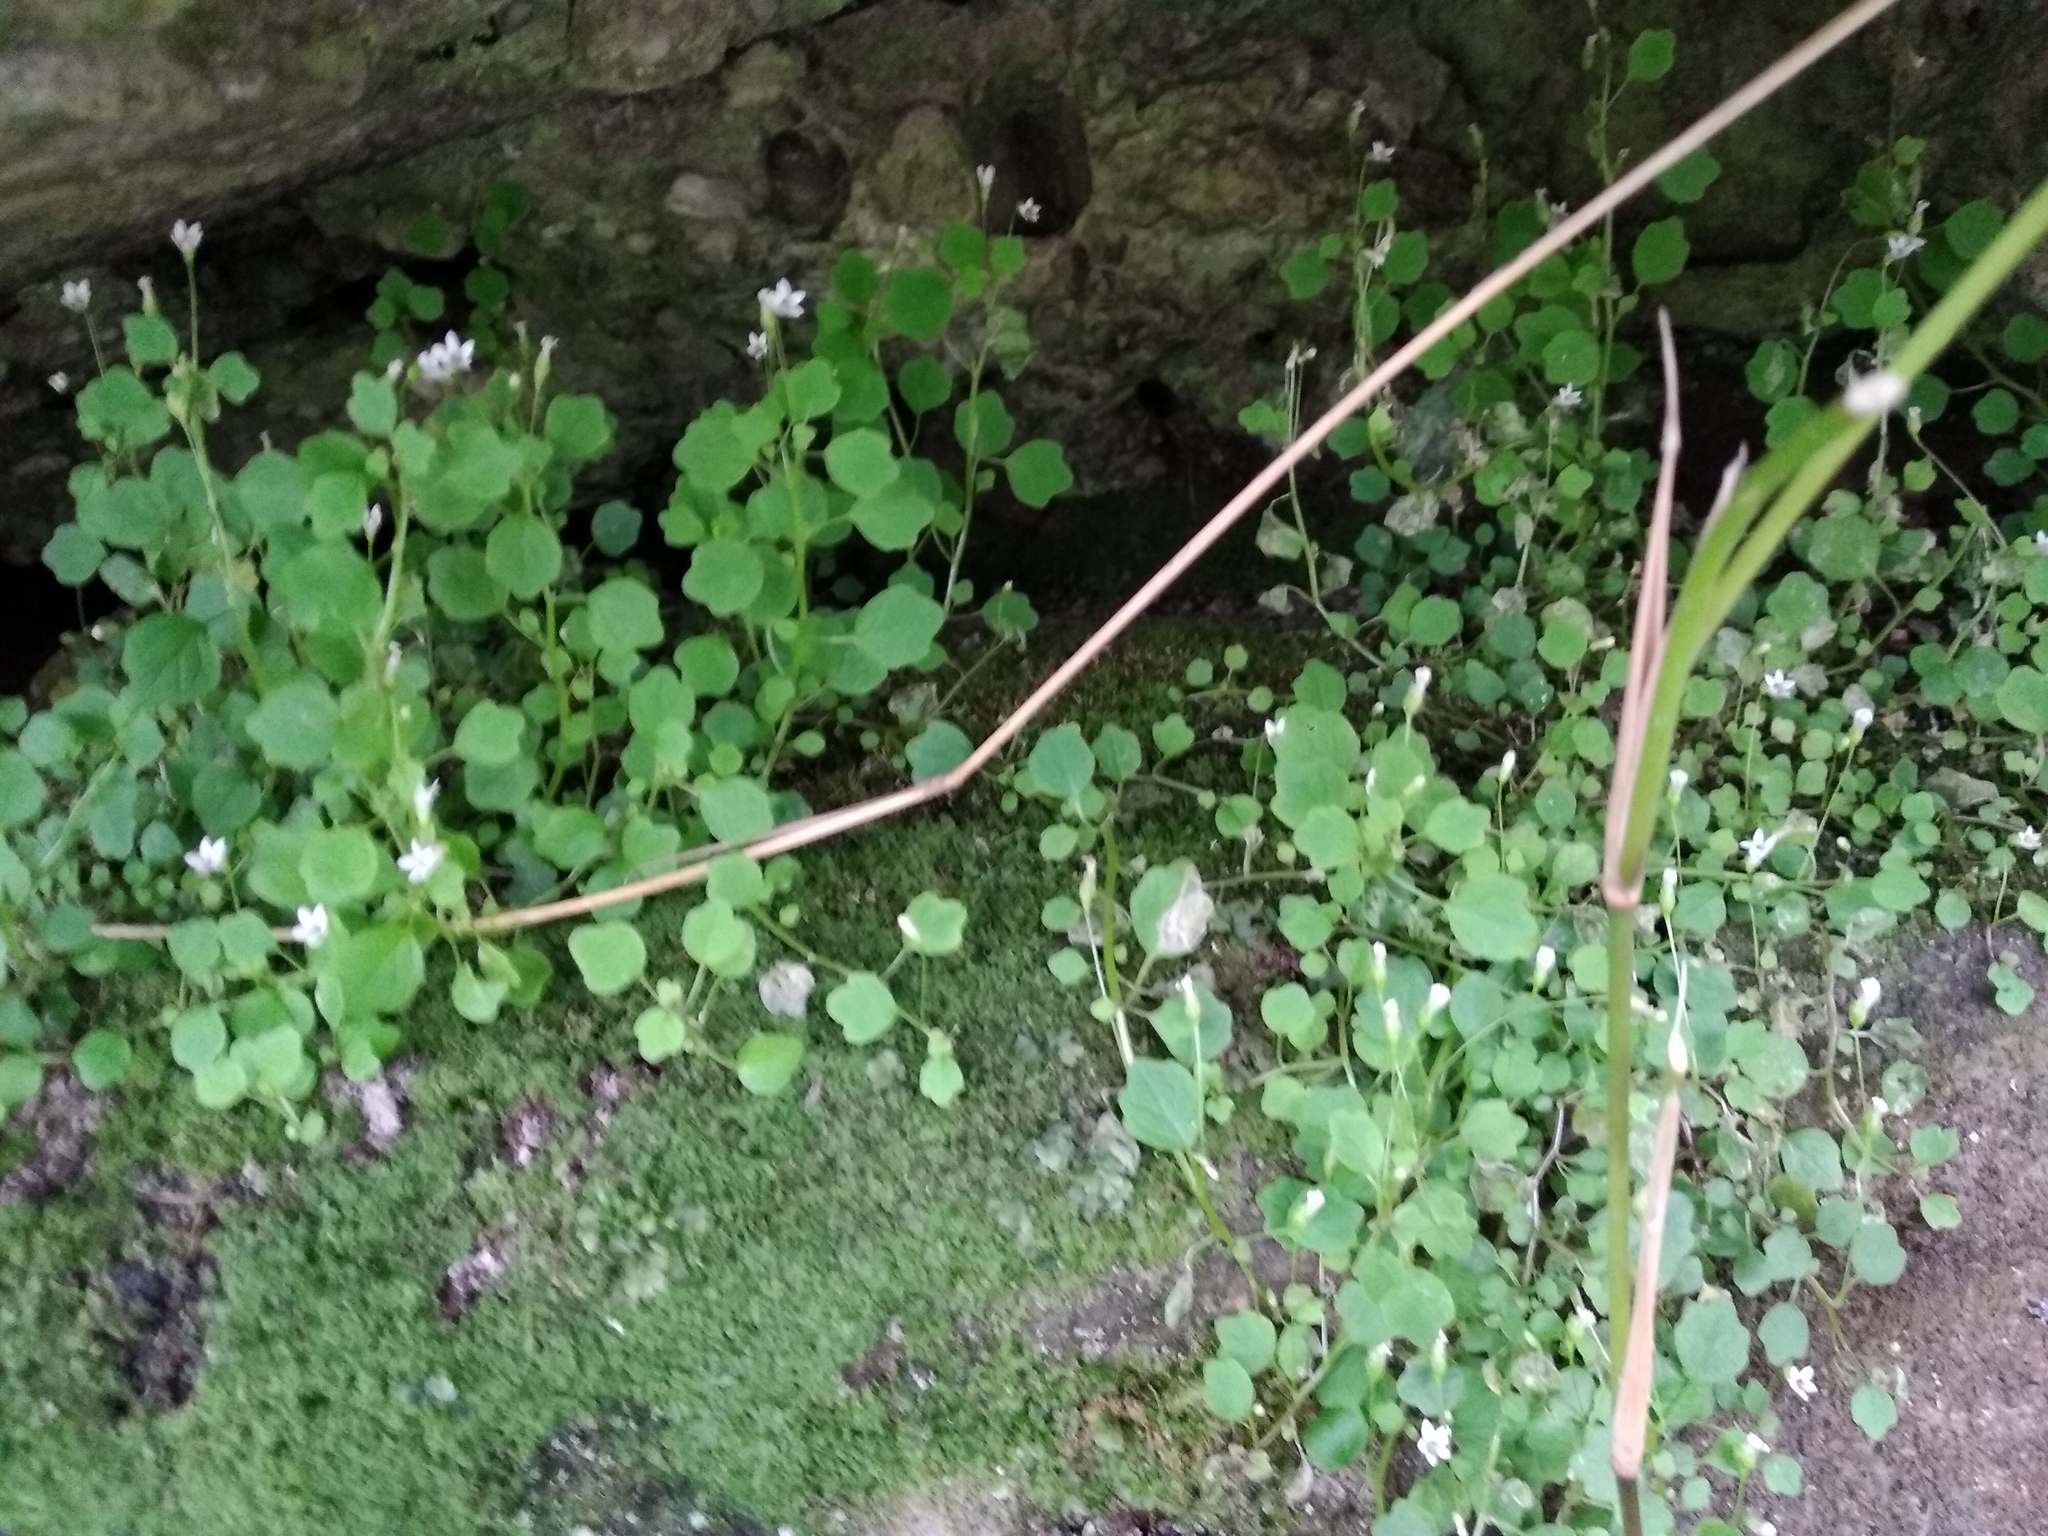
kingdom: Plantae
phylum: Tracheophyta
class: Magnoliopsida
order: Asterales
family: Campanulaceae
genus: Wimmerella
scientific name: Wimmerella pygmaea
